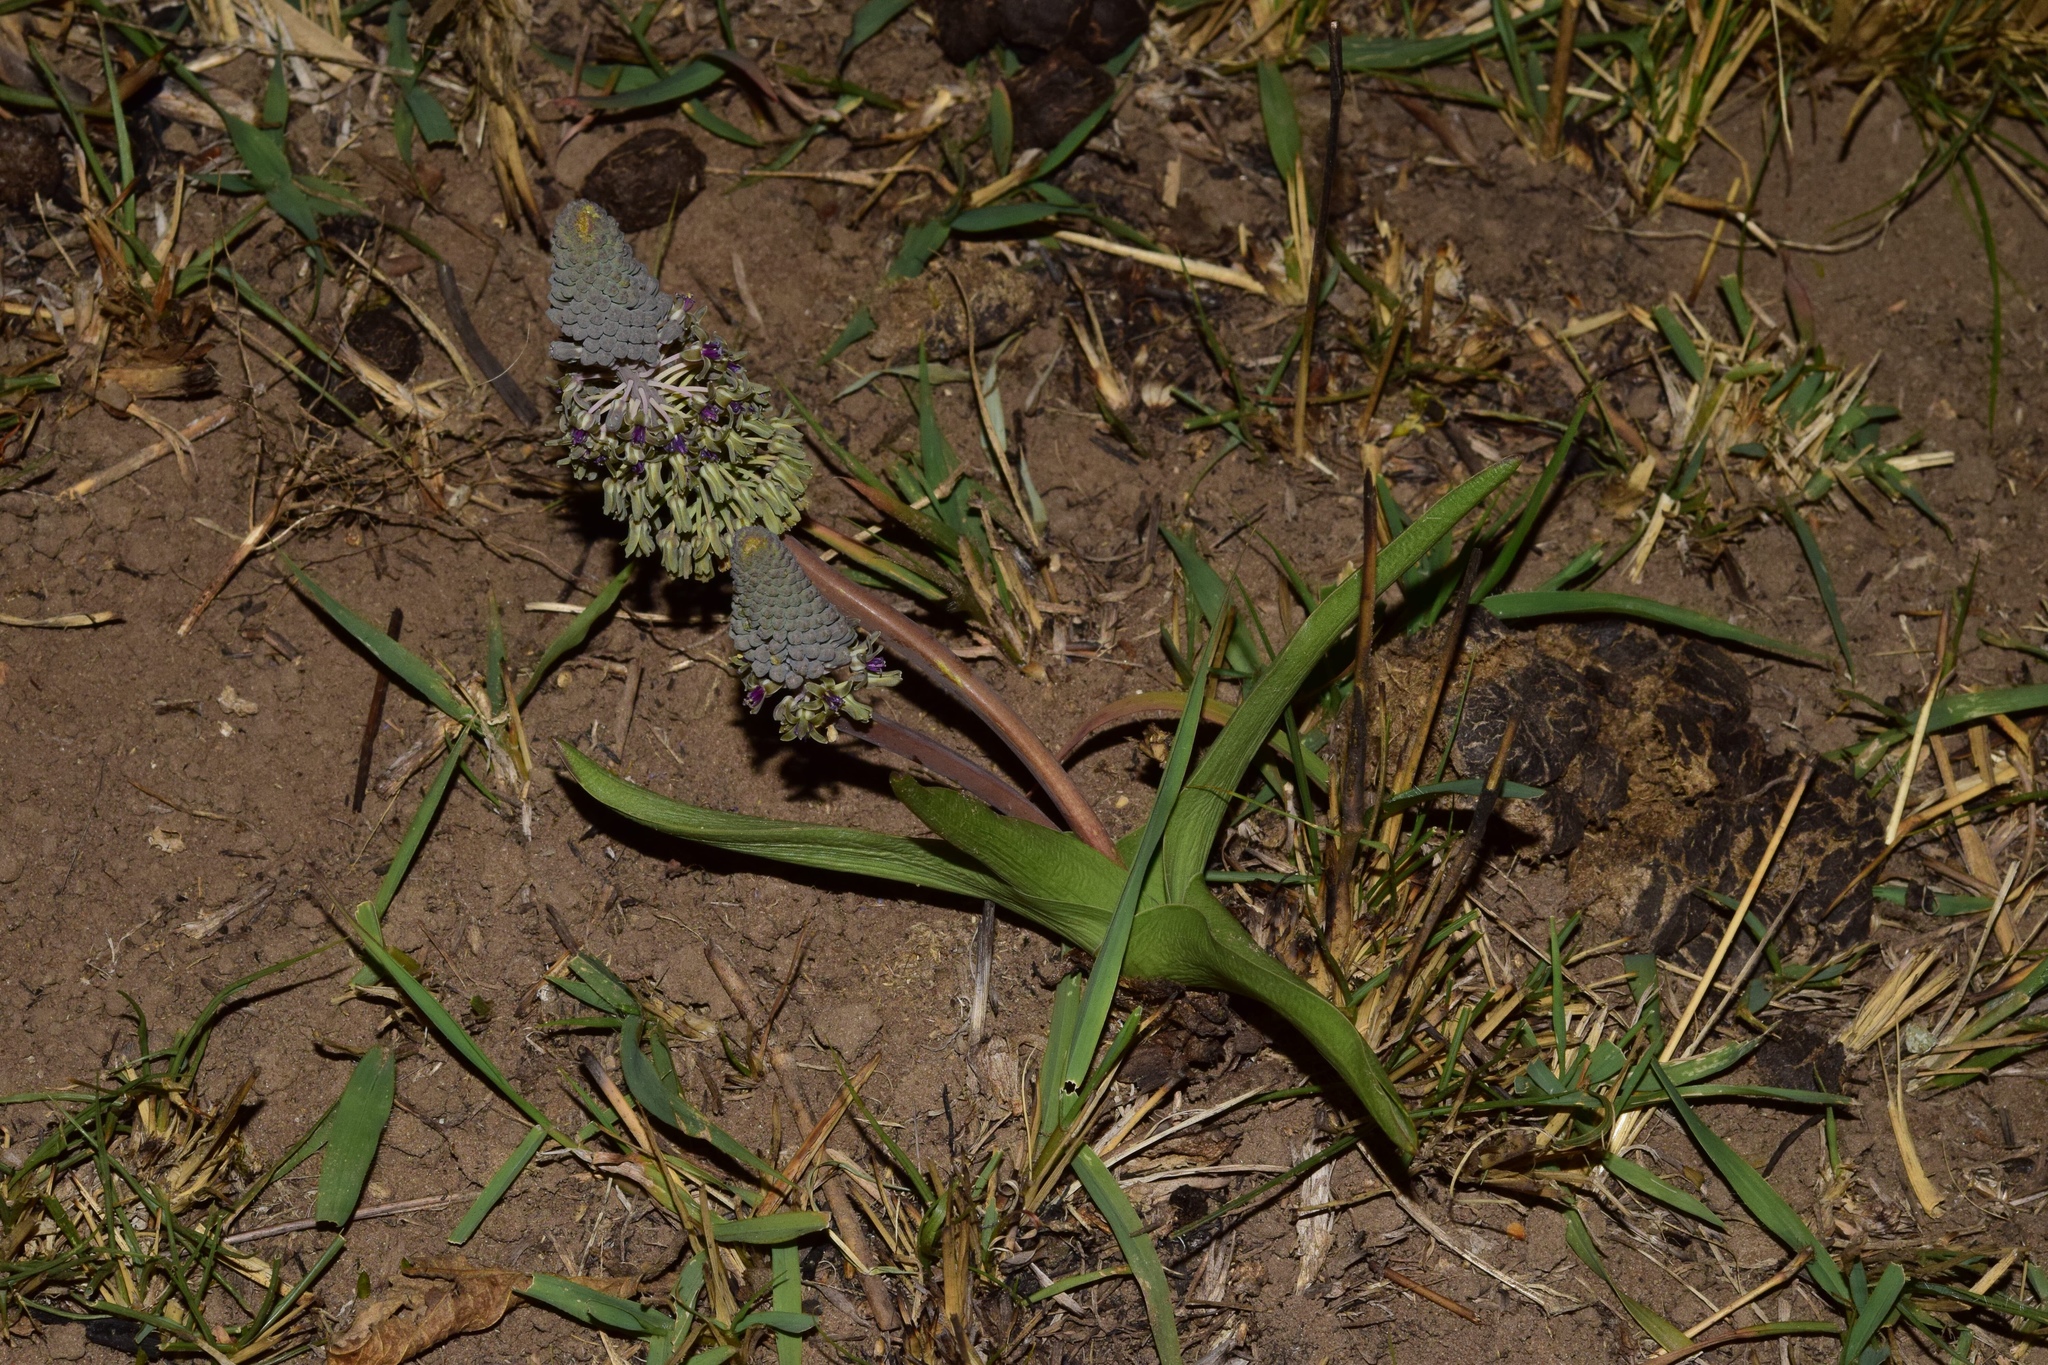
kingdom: Plantae
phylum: Tracheophyta
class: Liliopsida
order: Asparagales
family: Asparagaceae
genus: Ledebouria
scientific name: Ledebouria asperifolia
